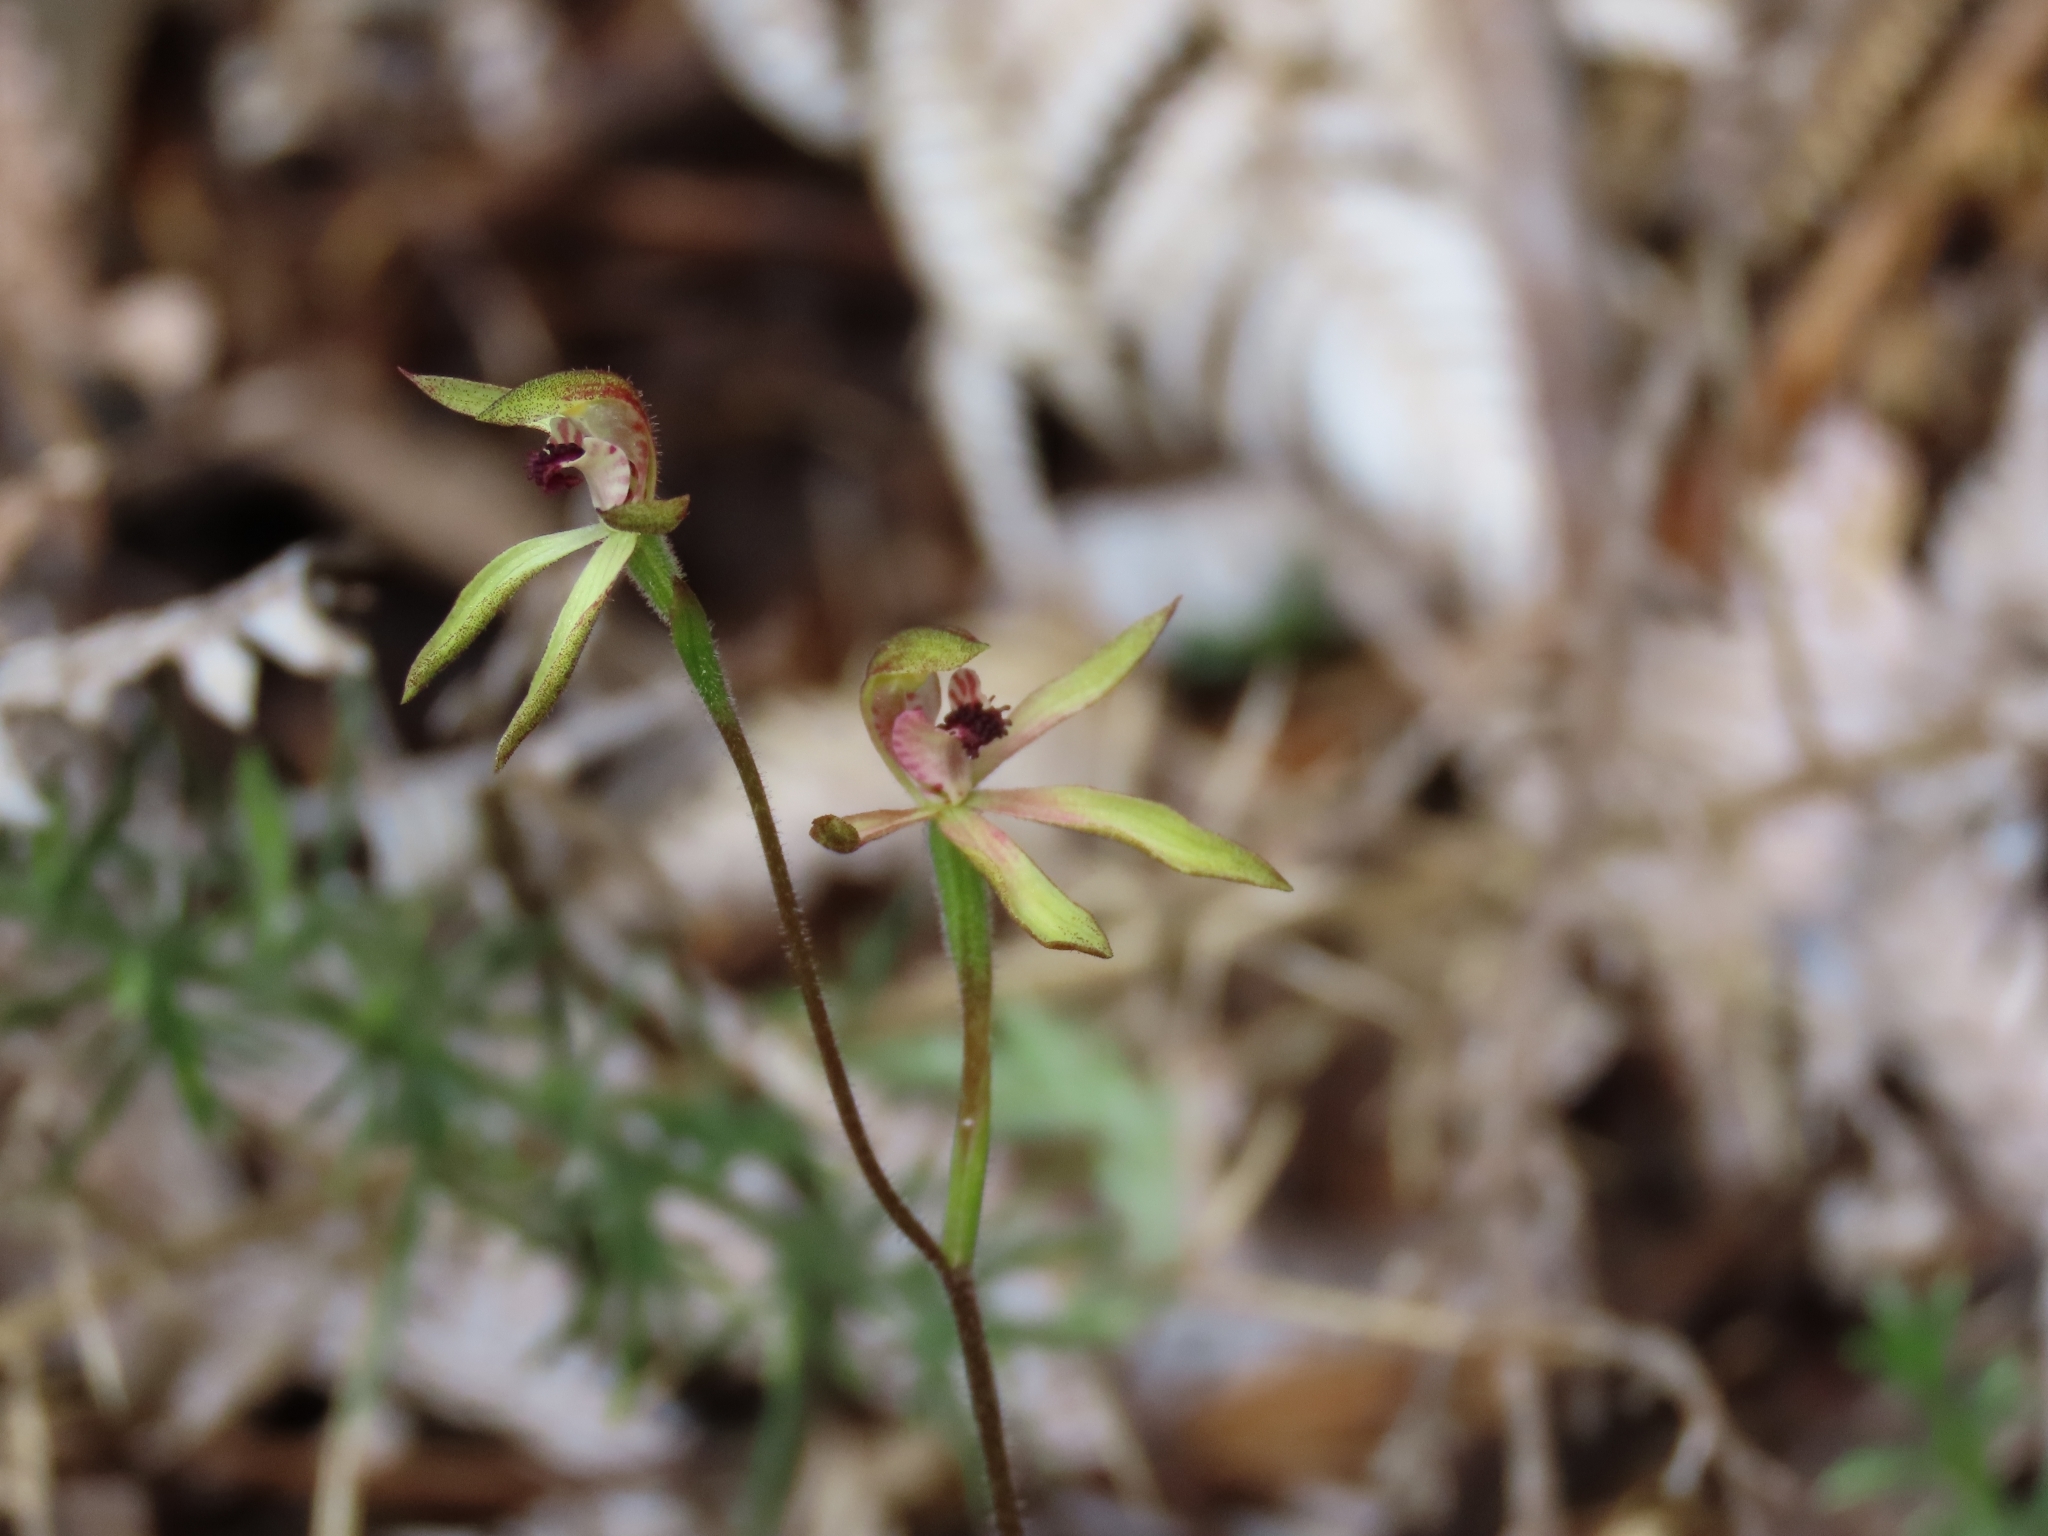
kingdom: Plantae
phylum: Tracheophyta
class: Liliopsida
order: Asparagales
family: Orchidaceae
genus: Caladenia
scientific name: Caladenia atradenia
